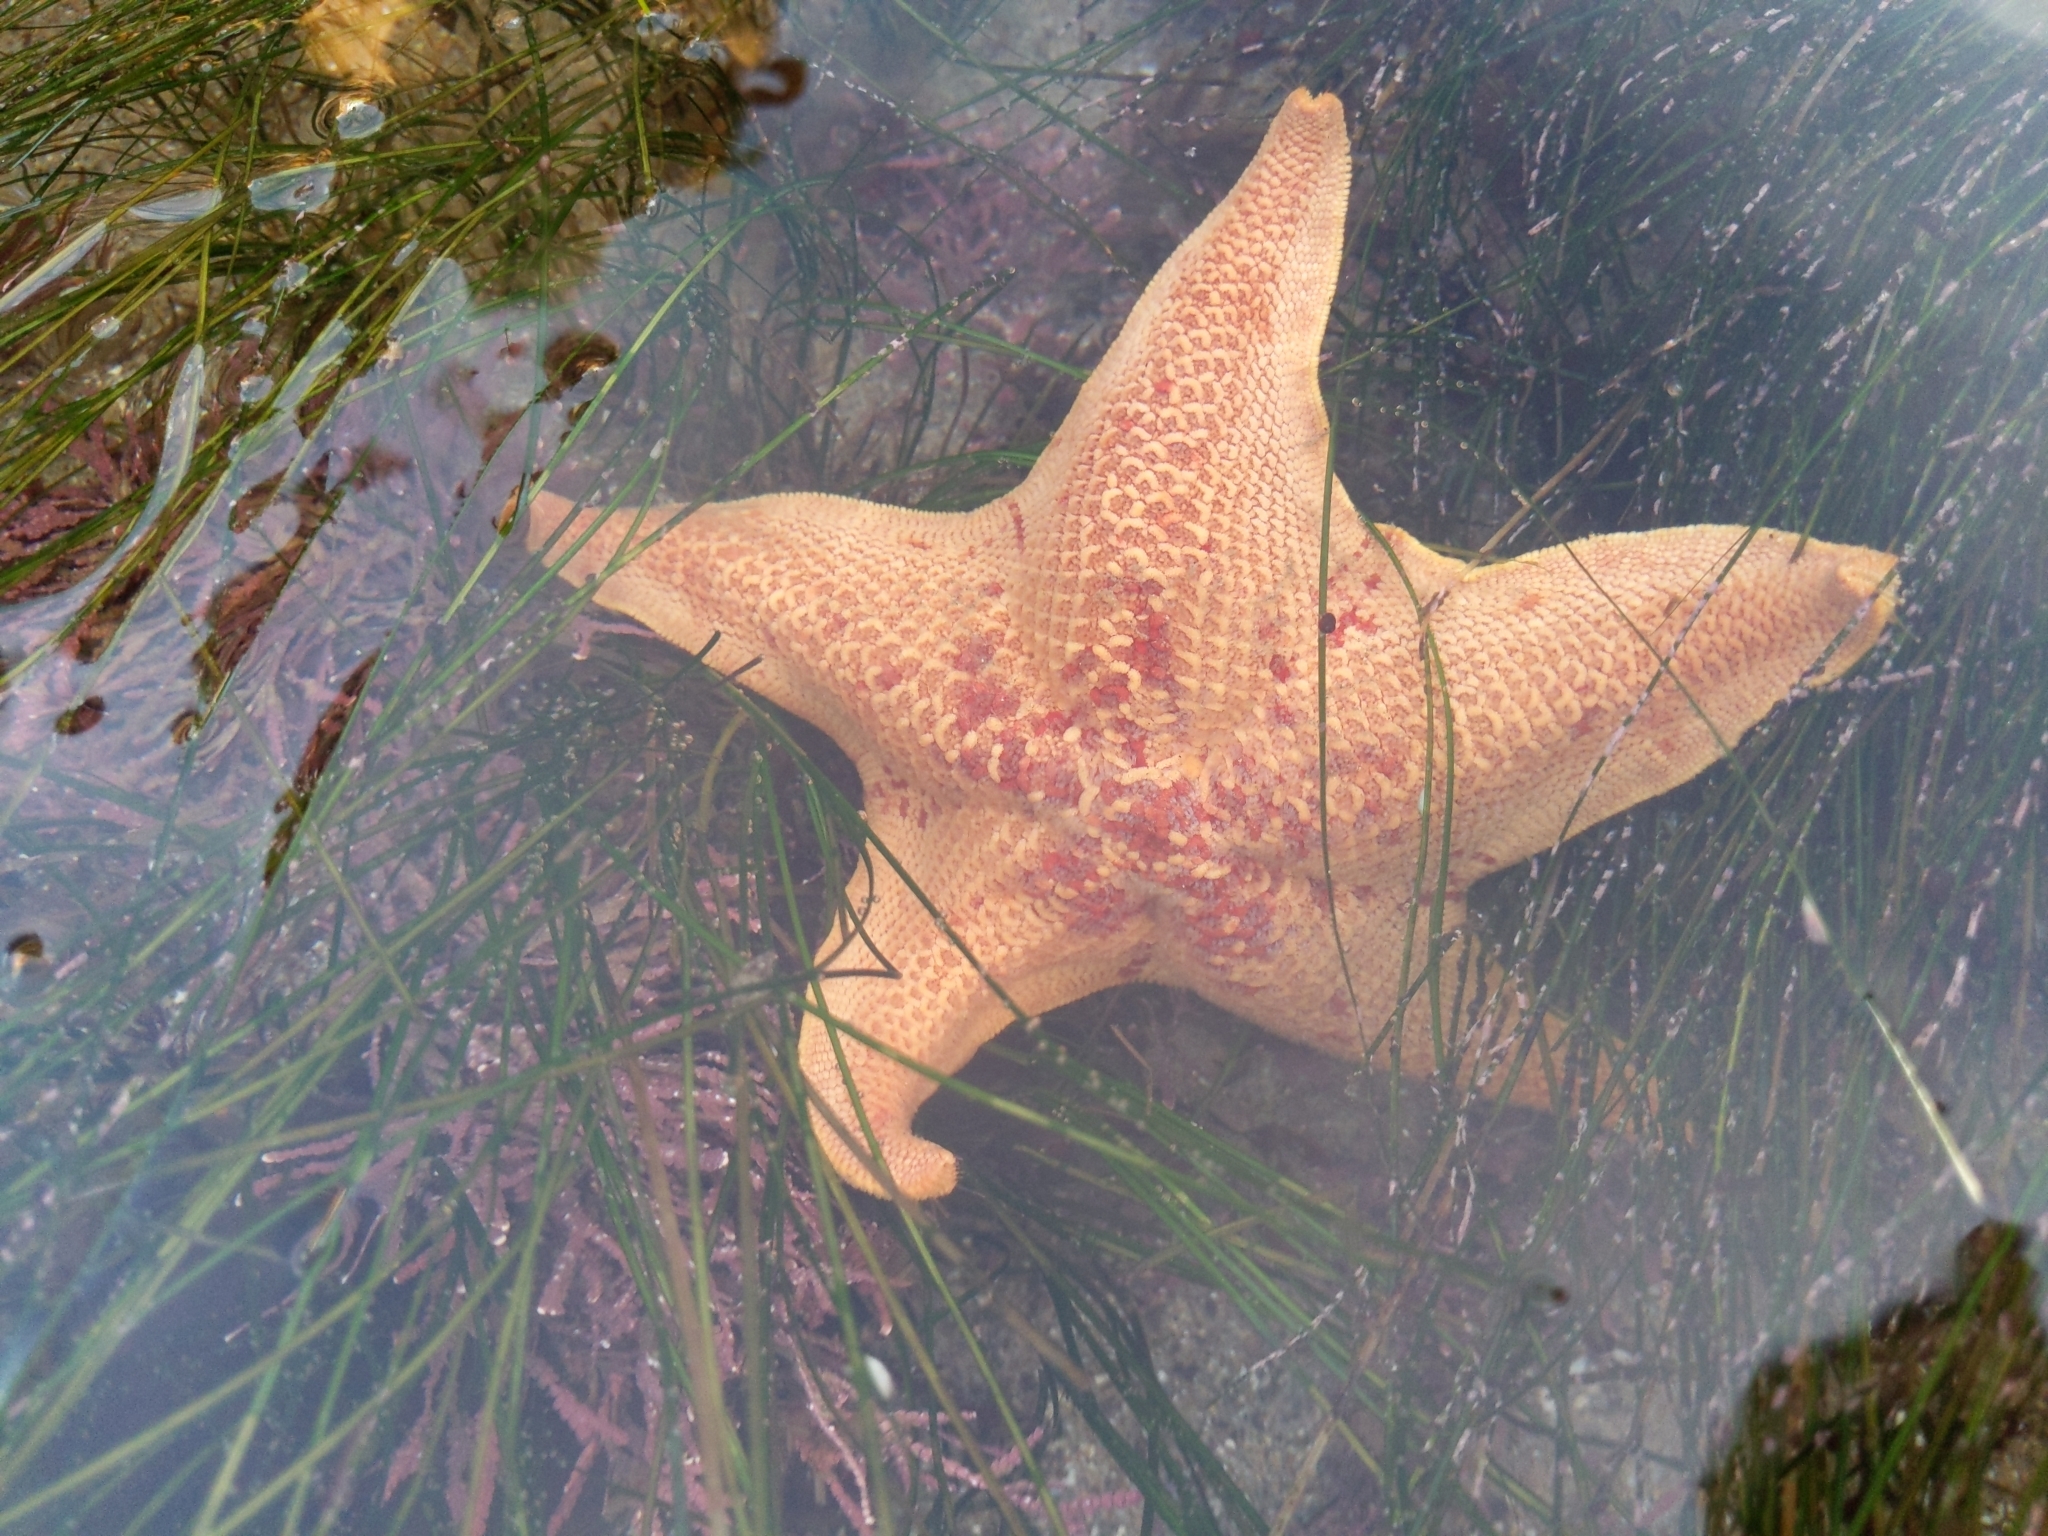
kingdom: Animalia
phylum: Echinodermata
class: Asteroidea
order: Valvatida
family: Asterinidae
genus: Patiria
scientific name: Patiria miniata
